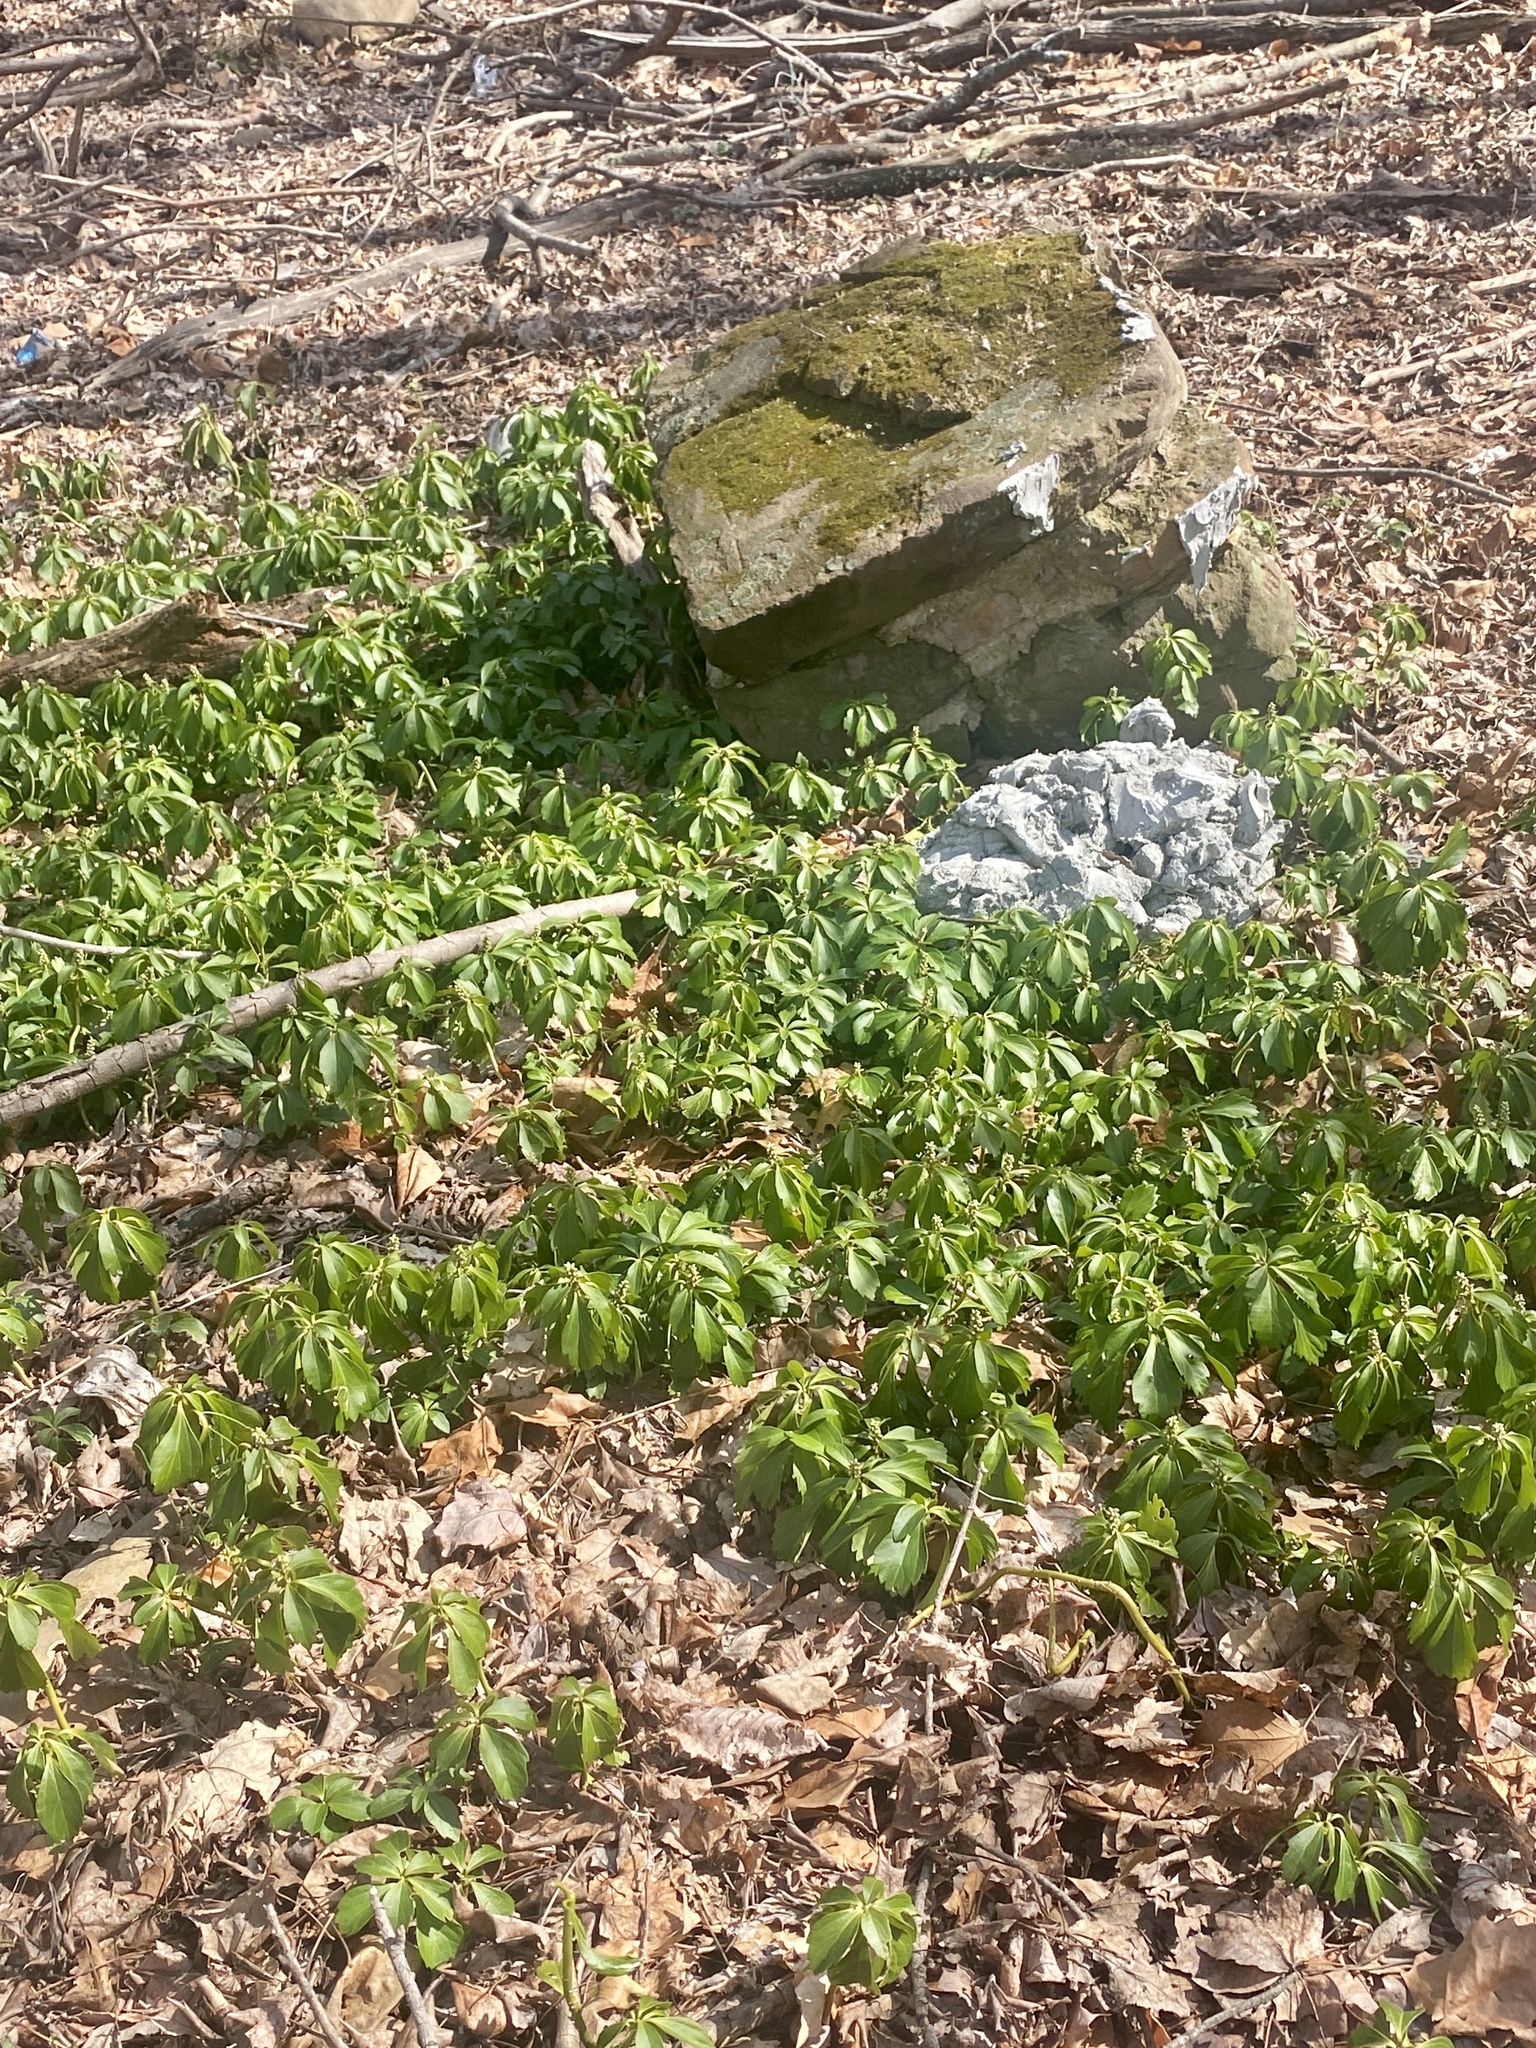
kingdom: Plantae
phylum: Tracheophyta
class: Magnoliopsida
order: Buxales
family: Buxaceae
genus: Pachysandra
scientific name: Pachysandra terminalis
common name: Japanese pachysandra
